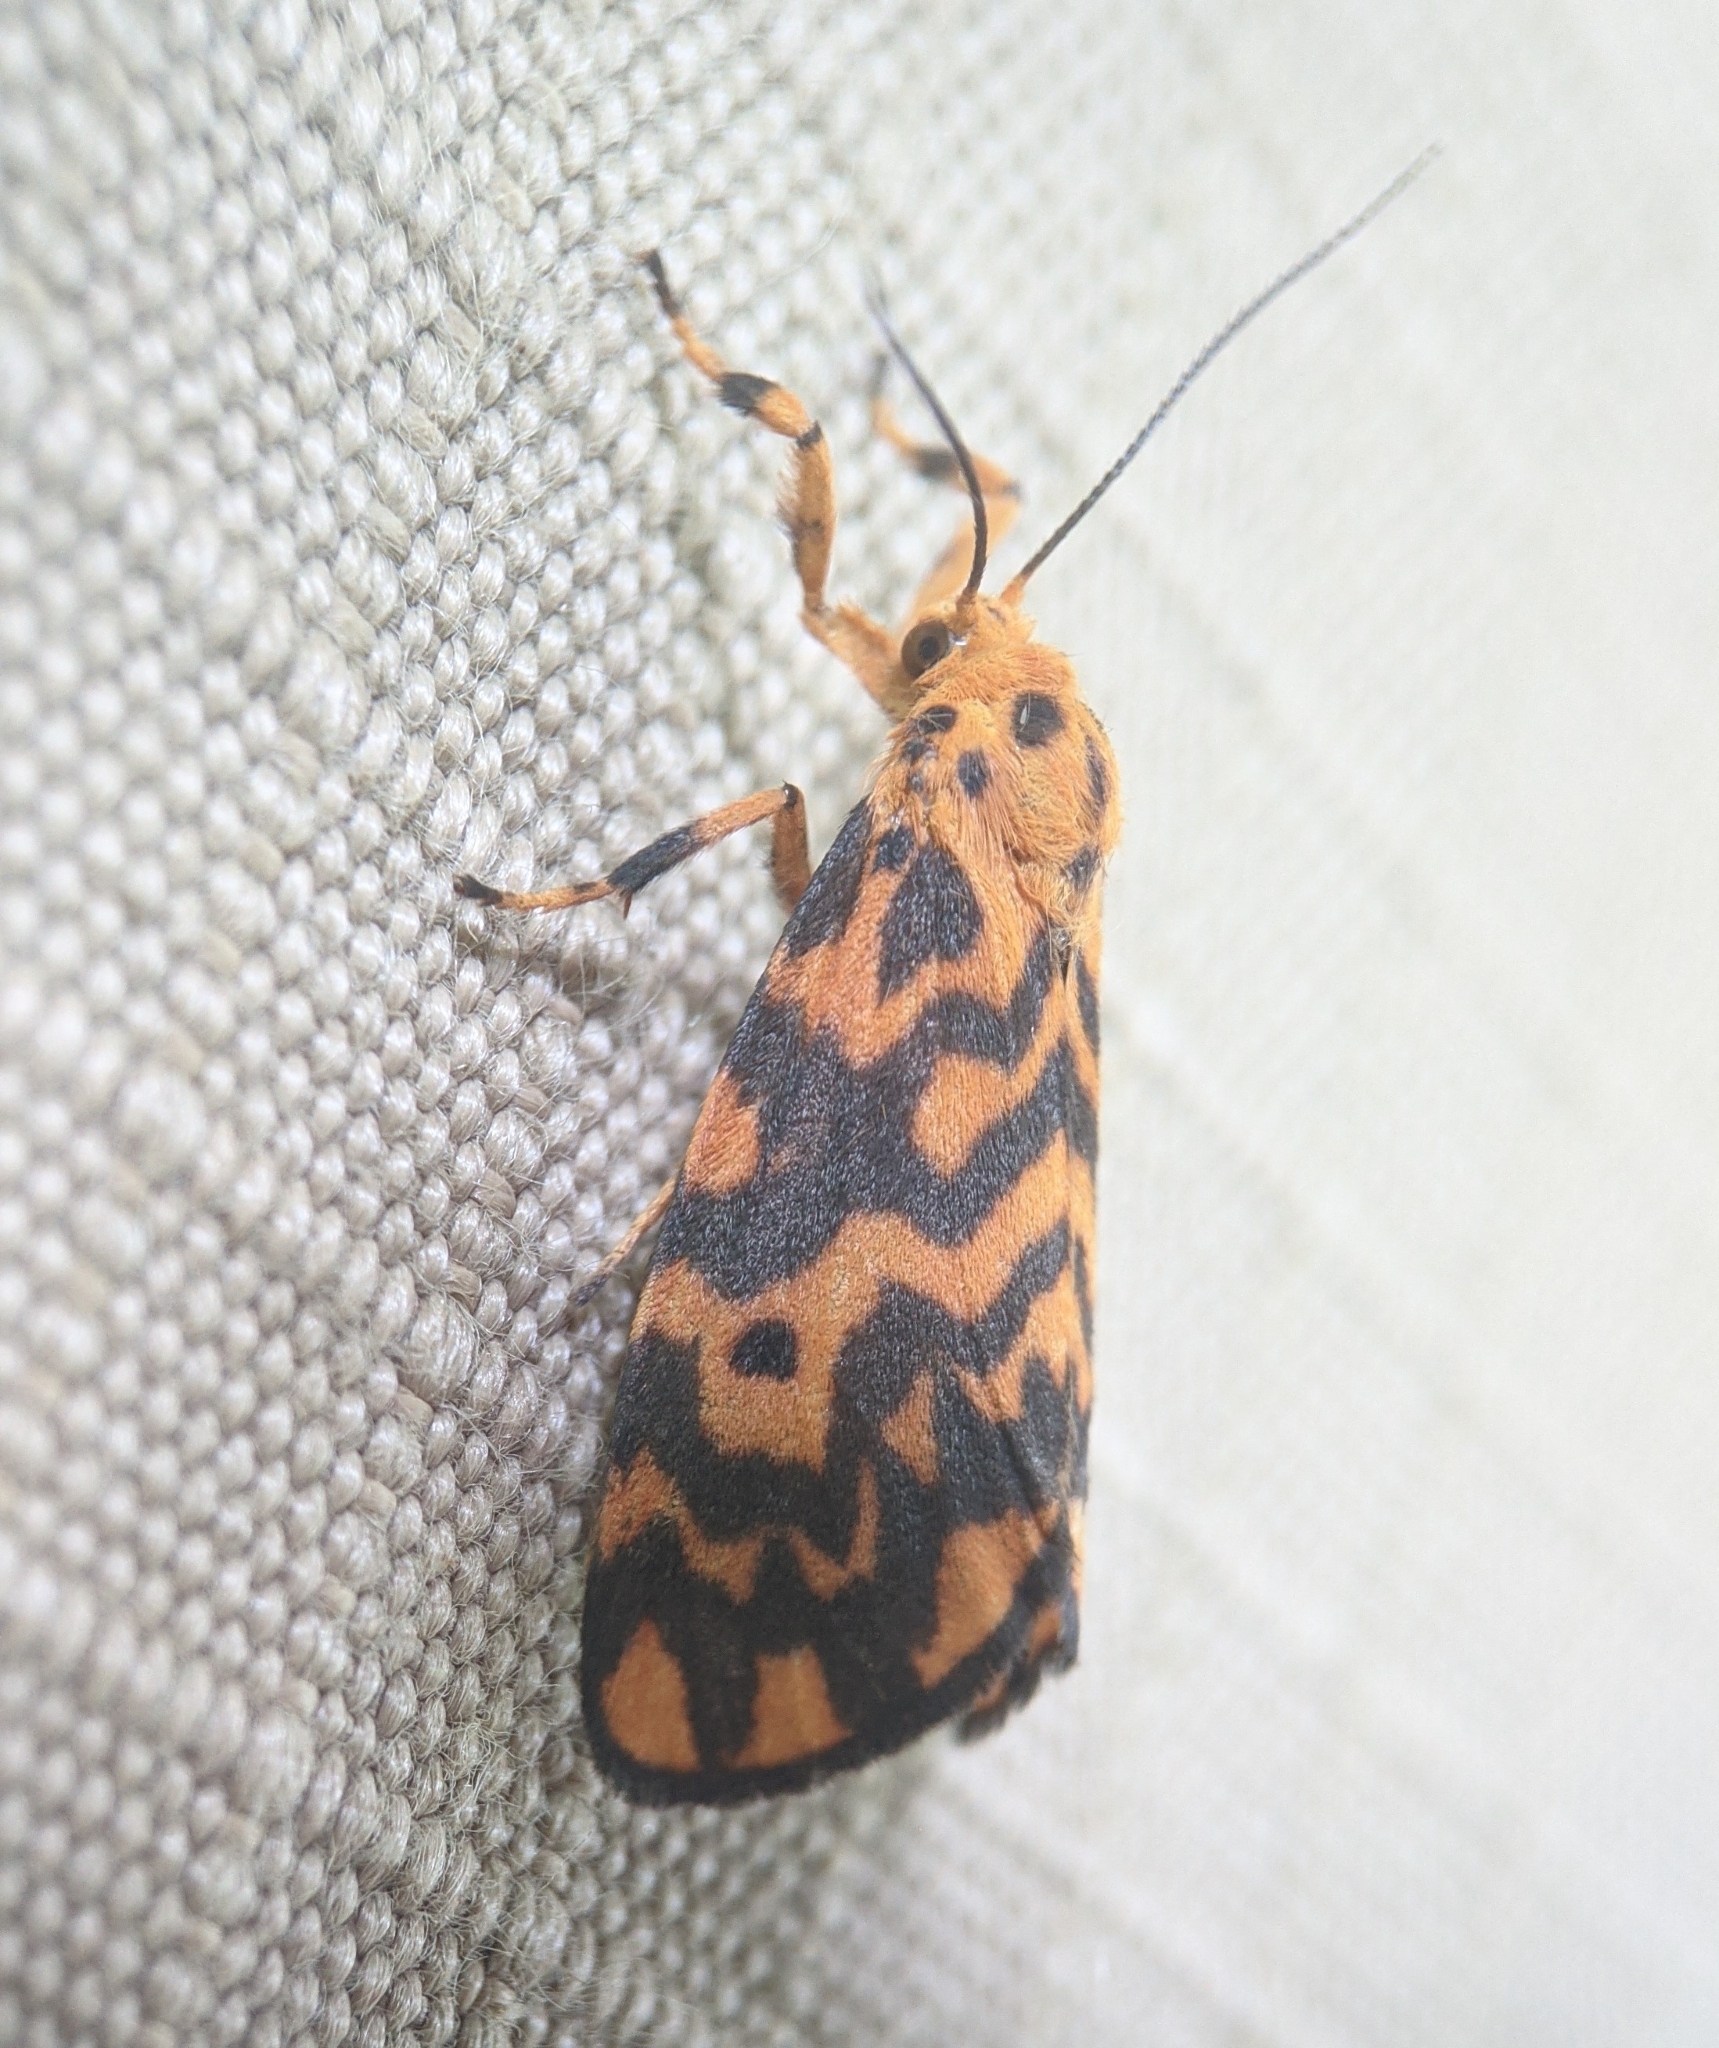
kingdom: Animalia
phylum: Arthropoda
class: Insecta
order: Lepidoptera
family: Erebidae
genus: Nepita
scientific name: Nepita conferta
